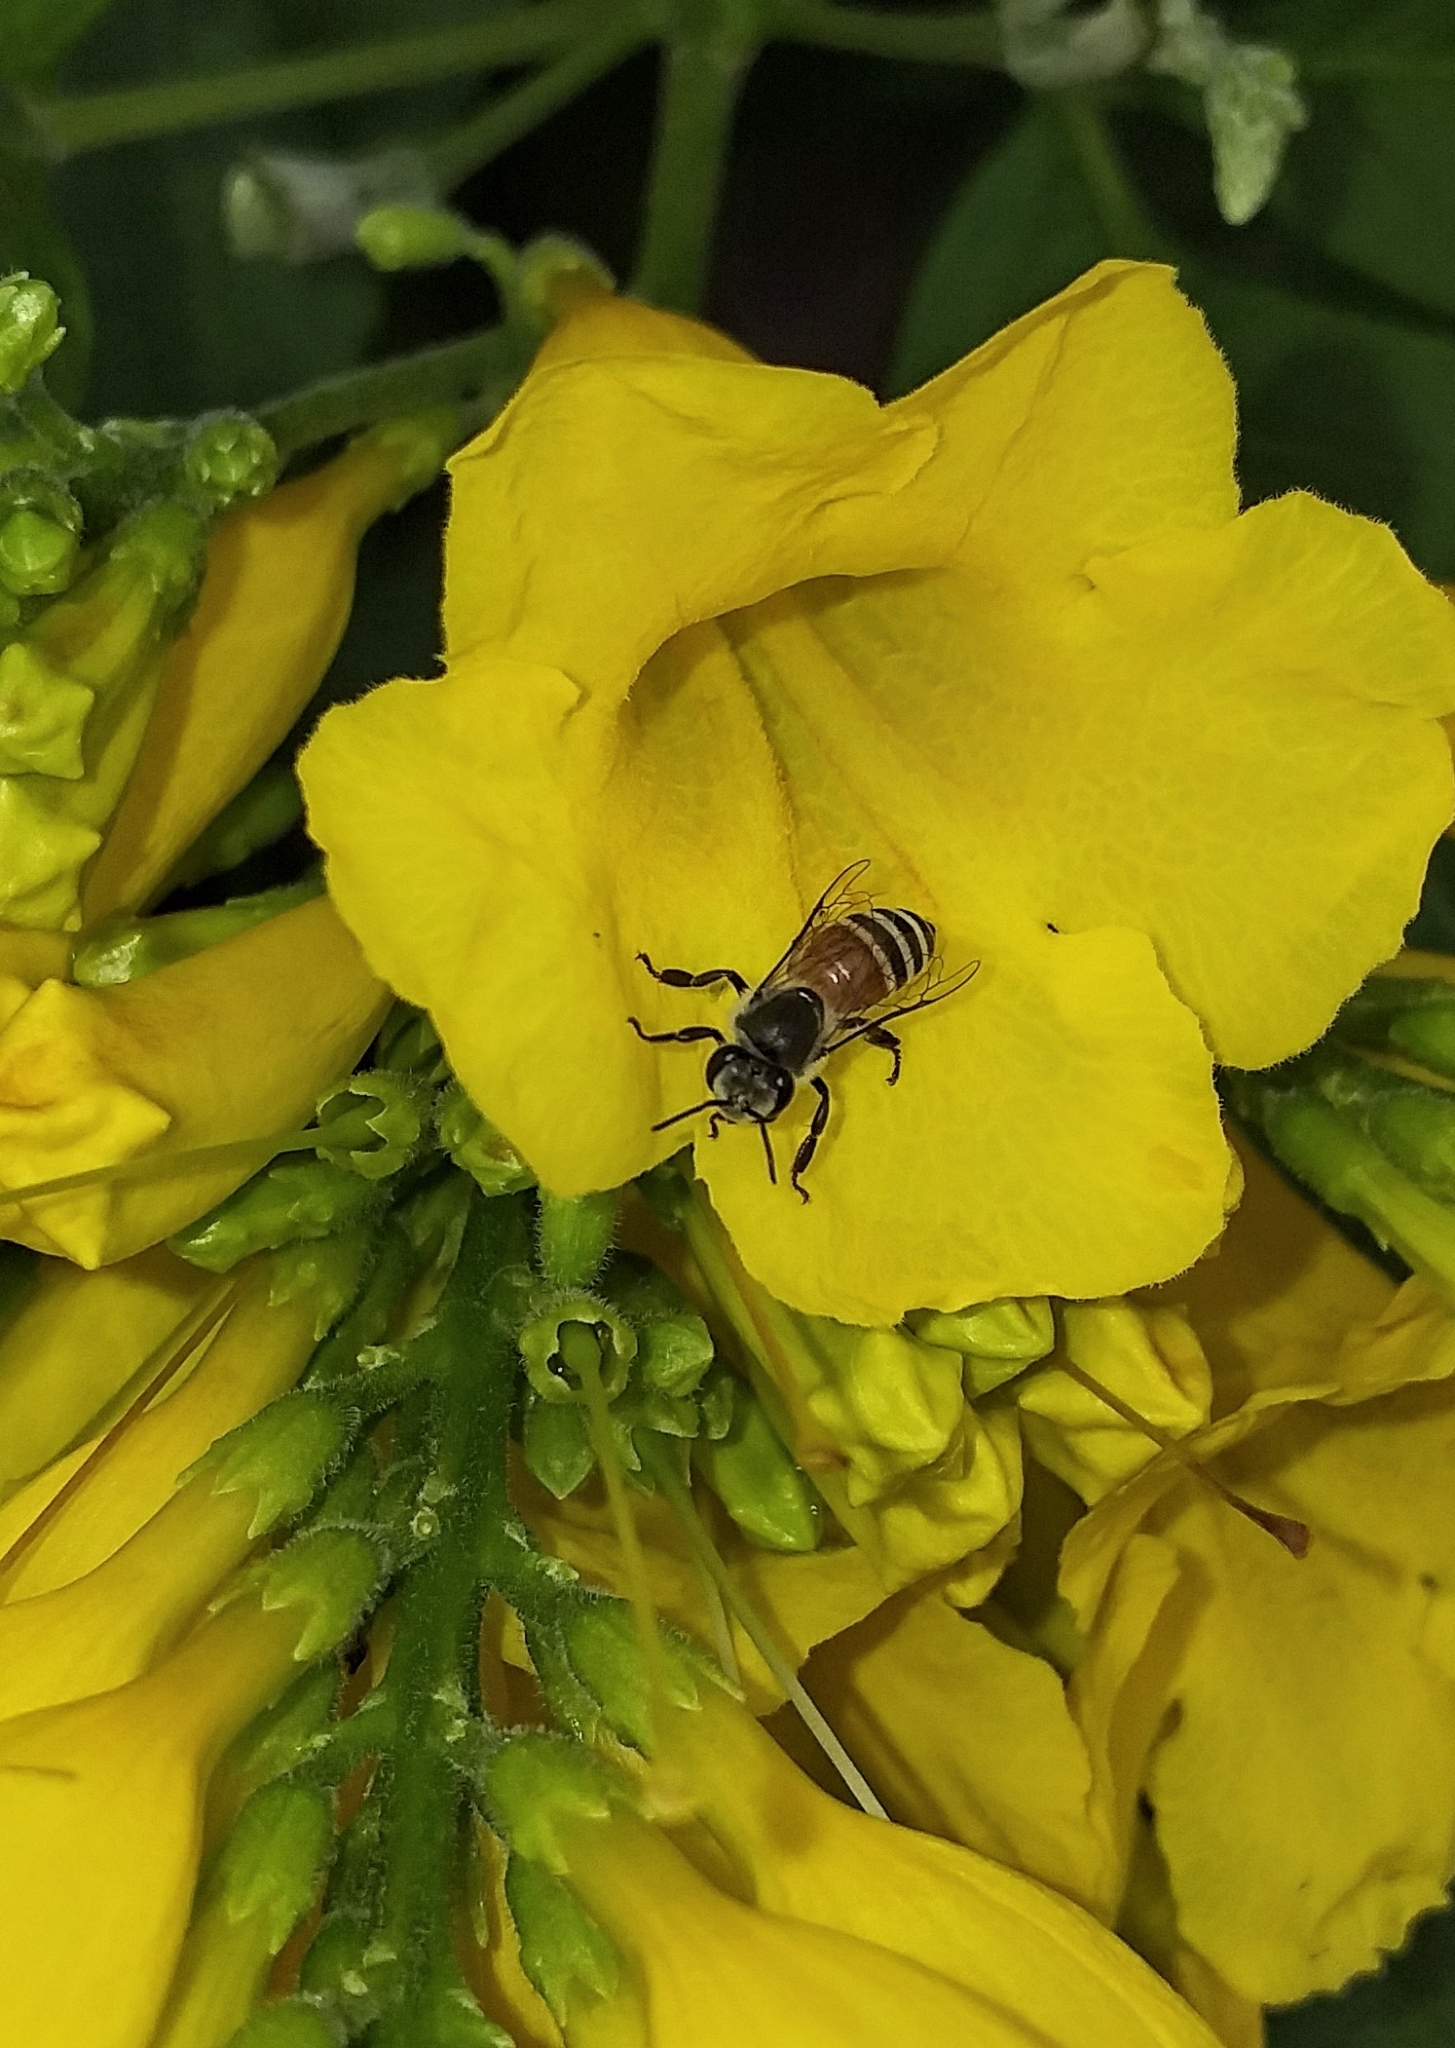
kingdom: Animalia
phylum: Arthropoda
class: Insecta
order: Hymenoptera
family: Apidae
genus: Apis
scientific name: Apis florea
